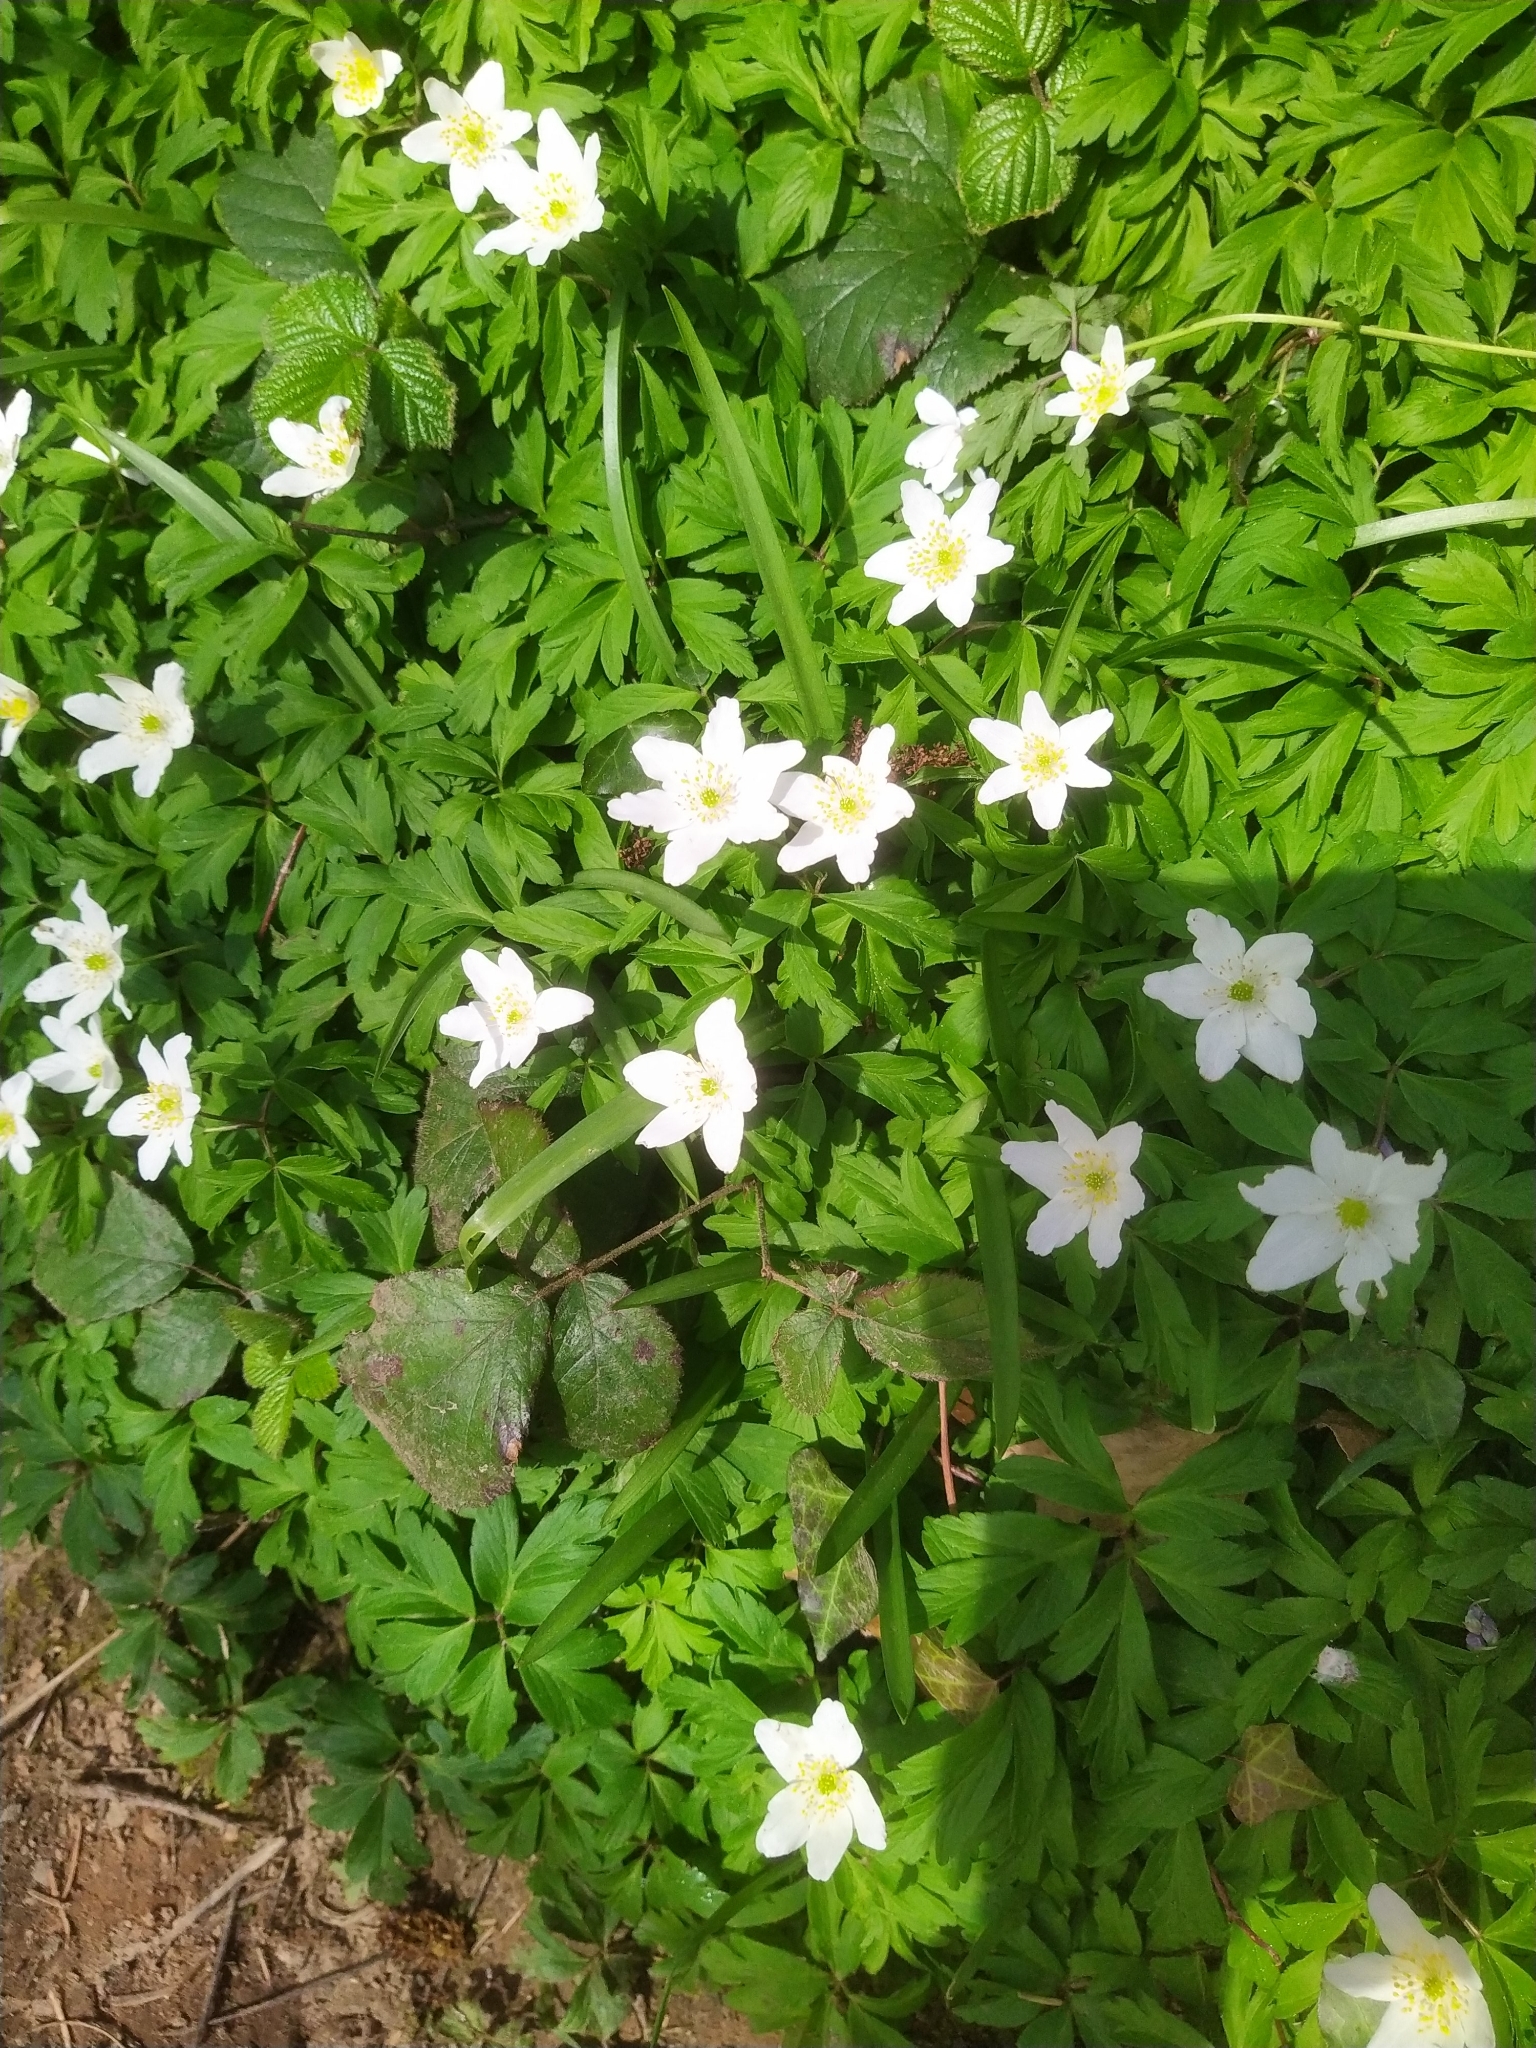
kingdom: Plantae
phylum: Tracheophyta
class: Magnoliopsida
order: Ranunculales
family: Ranunculaceae
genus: Anemone
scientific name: Anemone nemorosa
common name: Wood anemone
